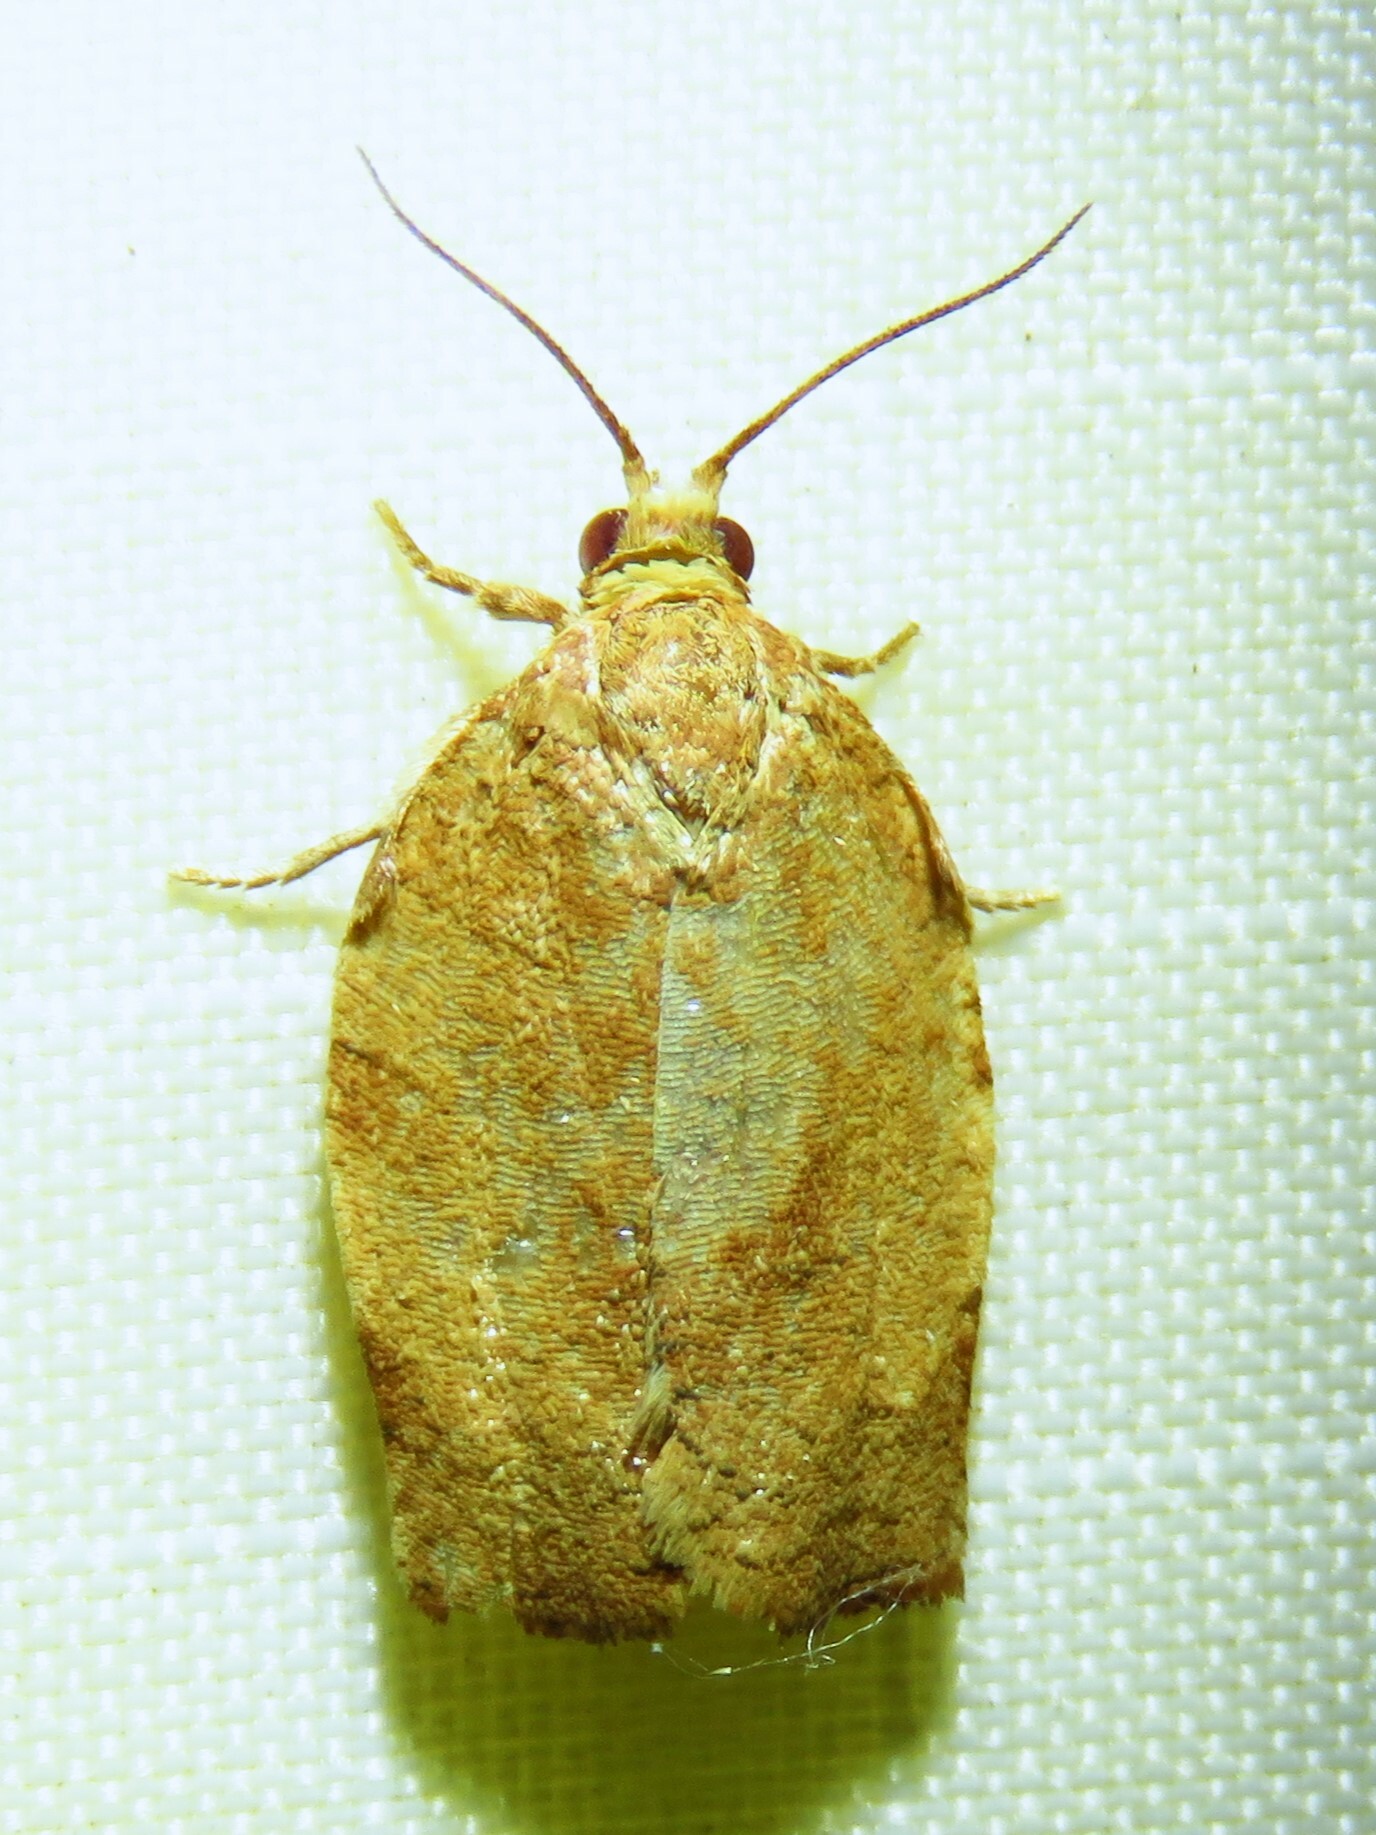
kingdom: Animalia
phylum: Arthropoda
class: Insecta
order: Lepidoptera
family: Tortricidae
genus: Choristoneura
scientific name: Choristoneura rosaceana
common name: Oblique-banded leafroller moth
